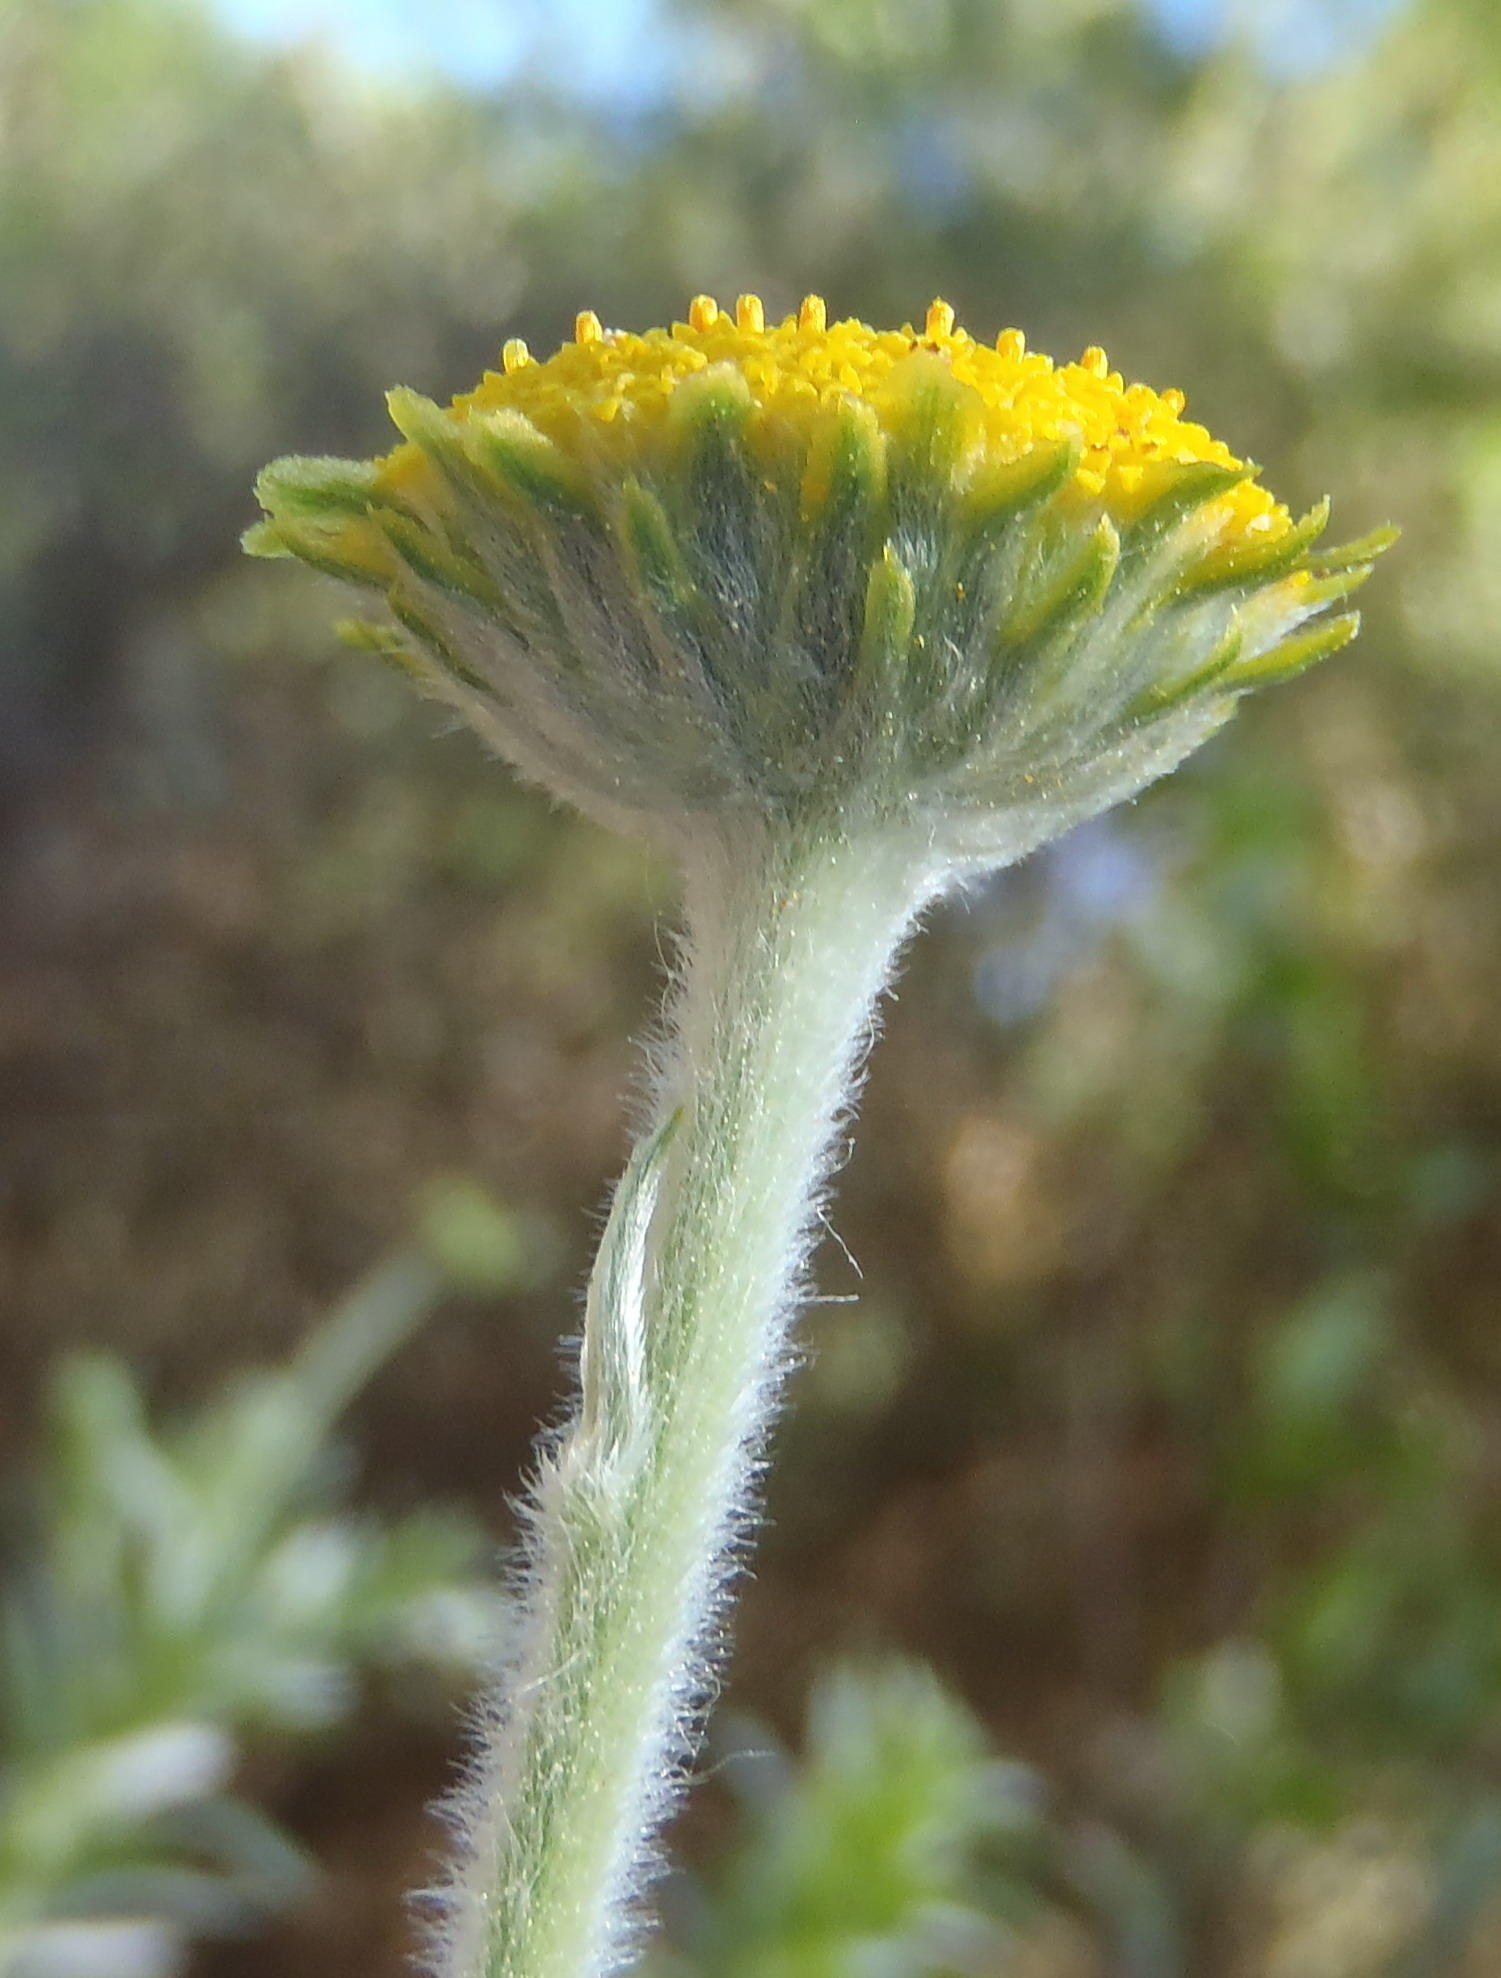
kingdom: Plantae
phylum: Tracheophyta
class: Magnoliopsida
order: Asterales
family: Asteraceae
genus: Schistostephium
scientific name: Schistostephium umbellatum
